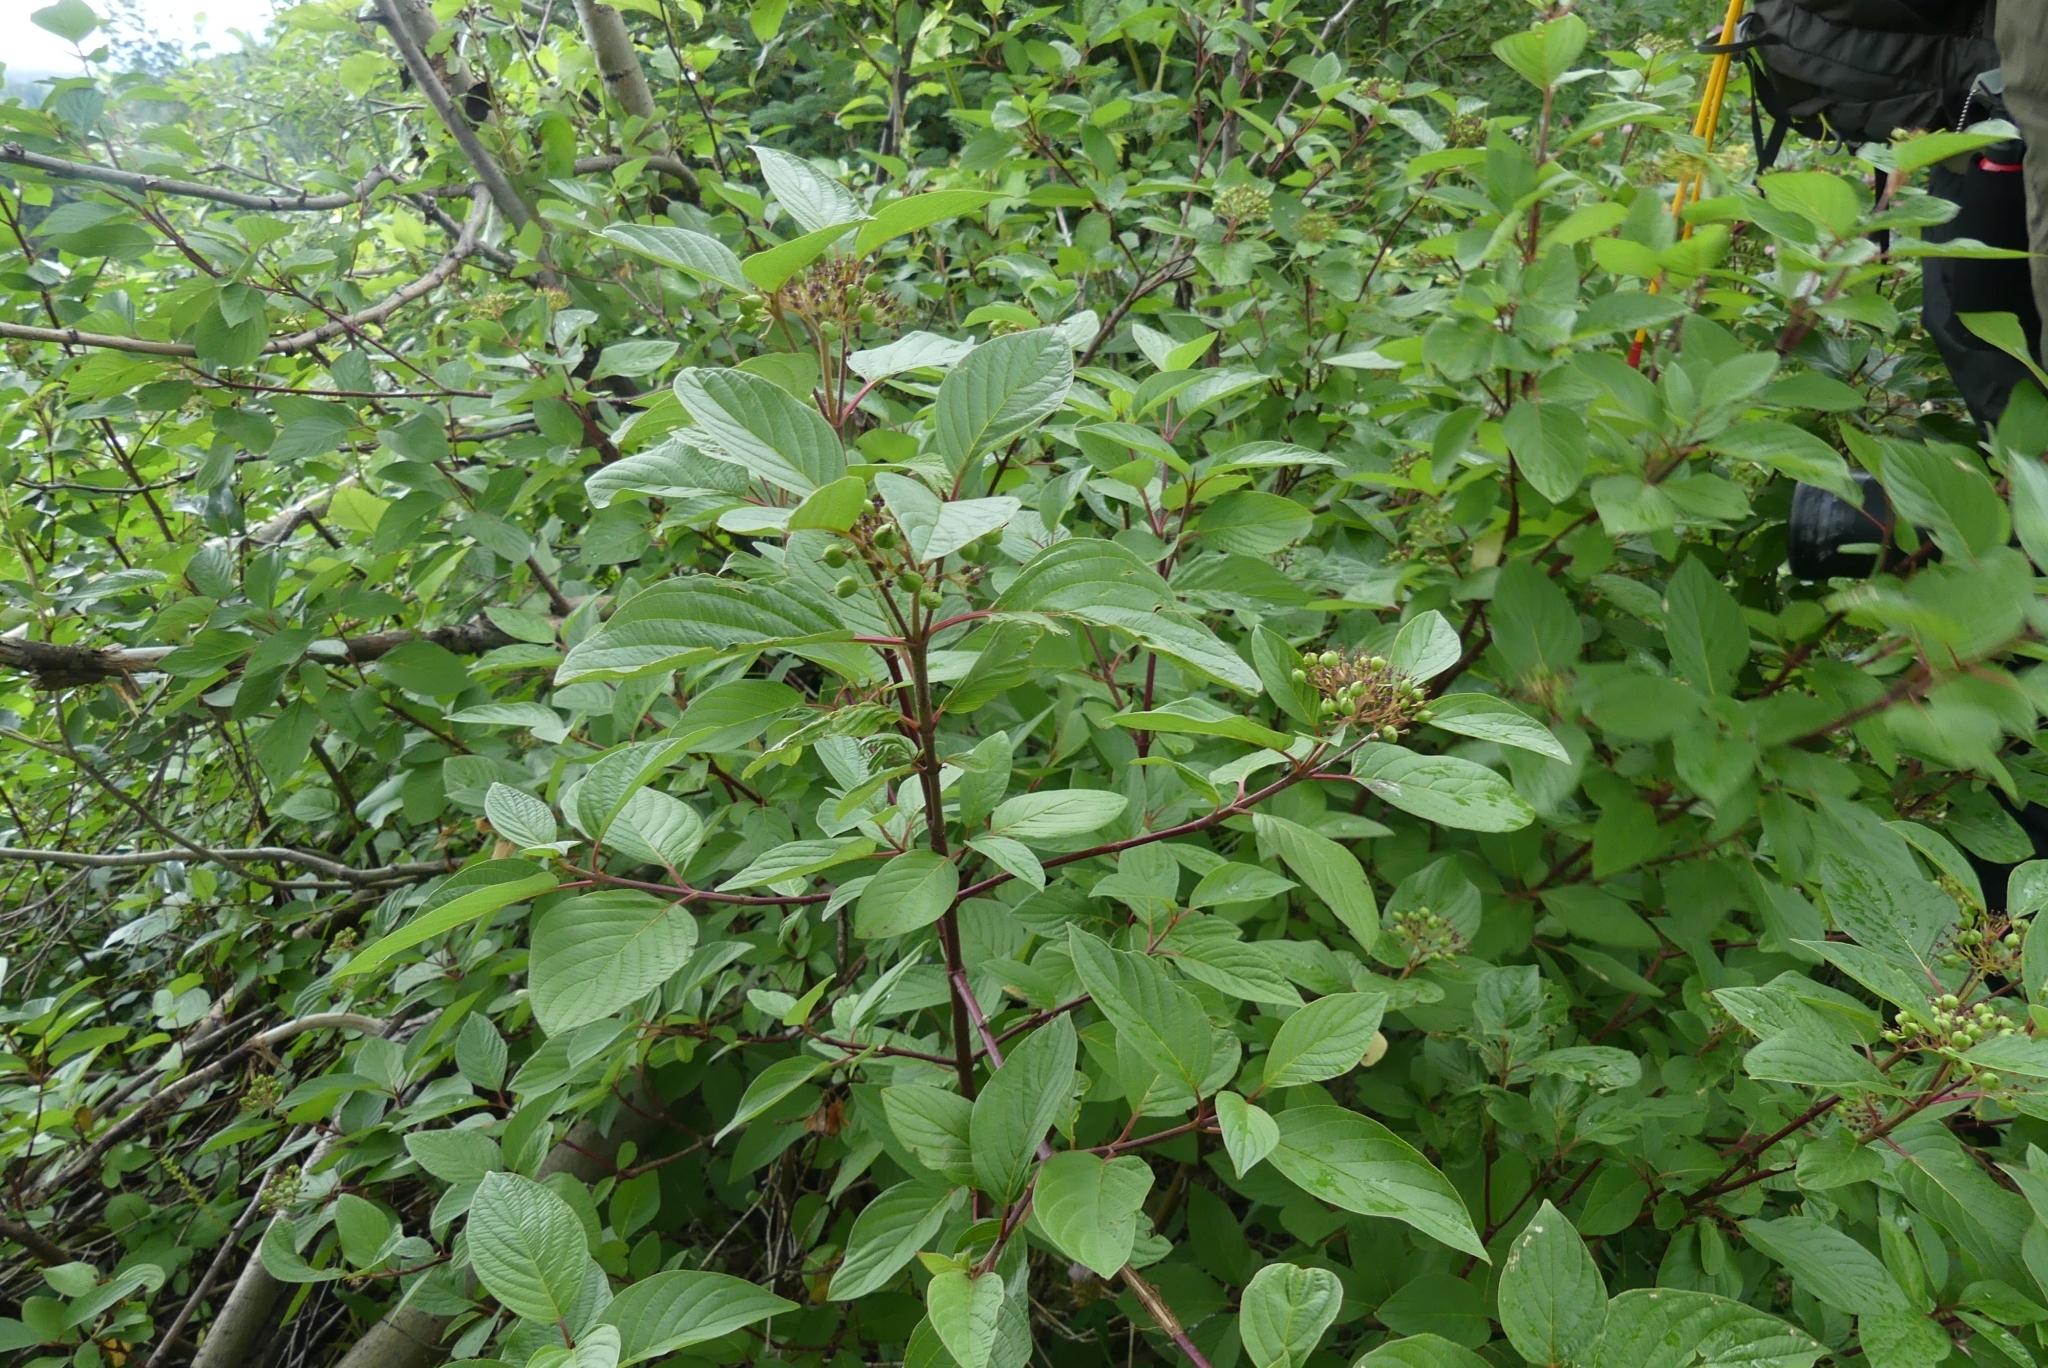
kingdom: Plantae
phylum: Tracheophyta
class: Magnoliopsida
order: Cornales
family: Cornaceae
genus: Cornus
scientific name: Cornus sericea
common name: Red-osier dogwood
